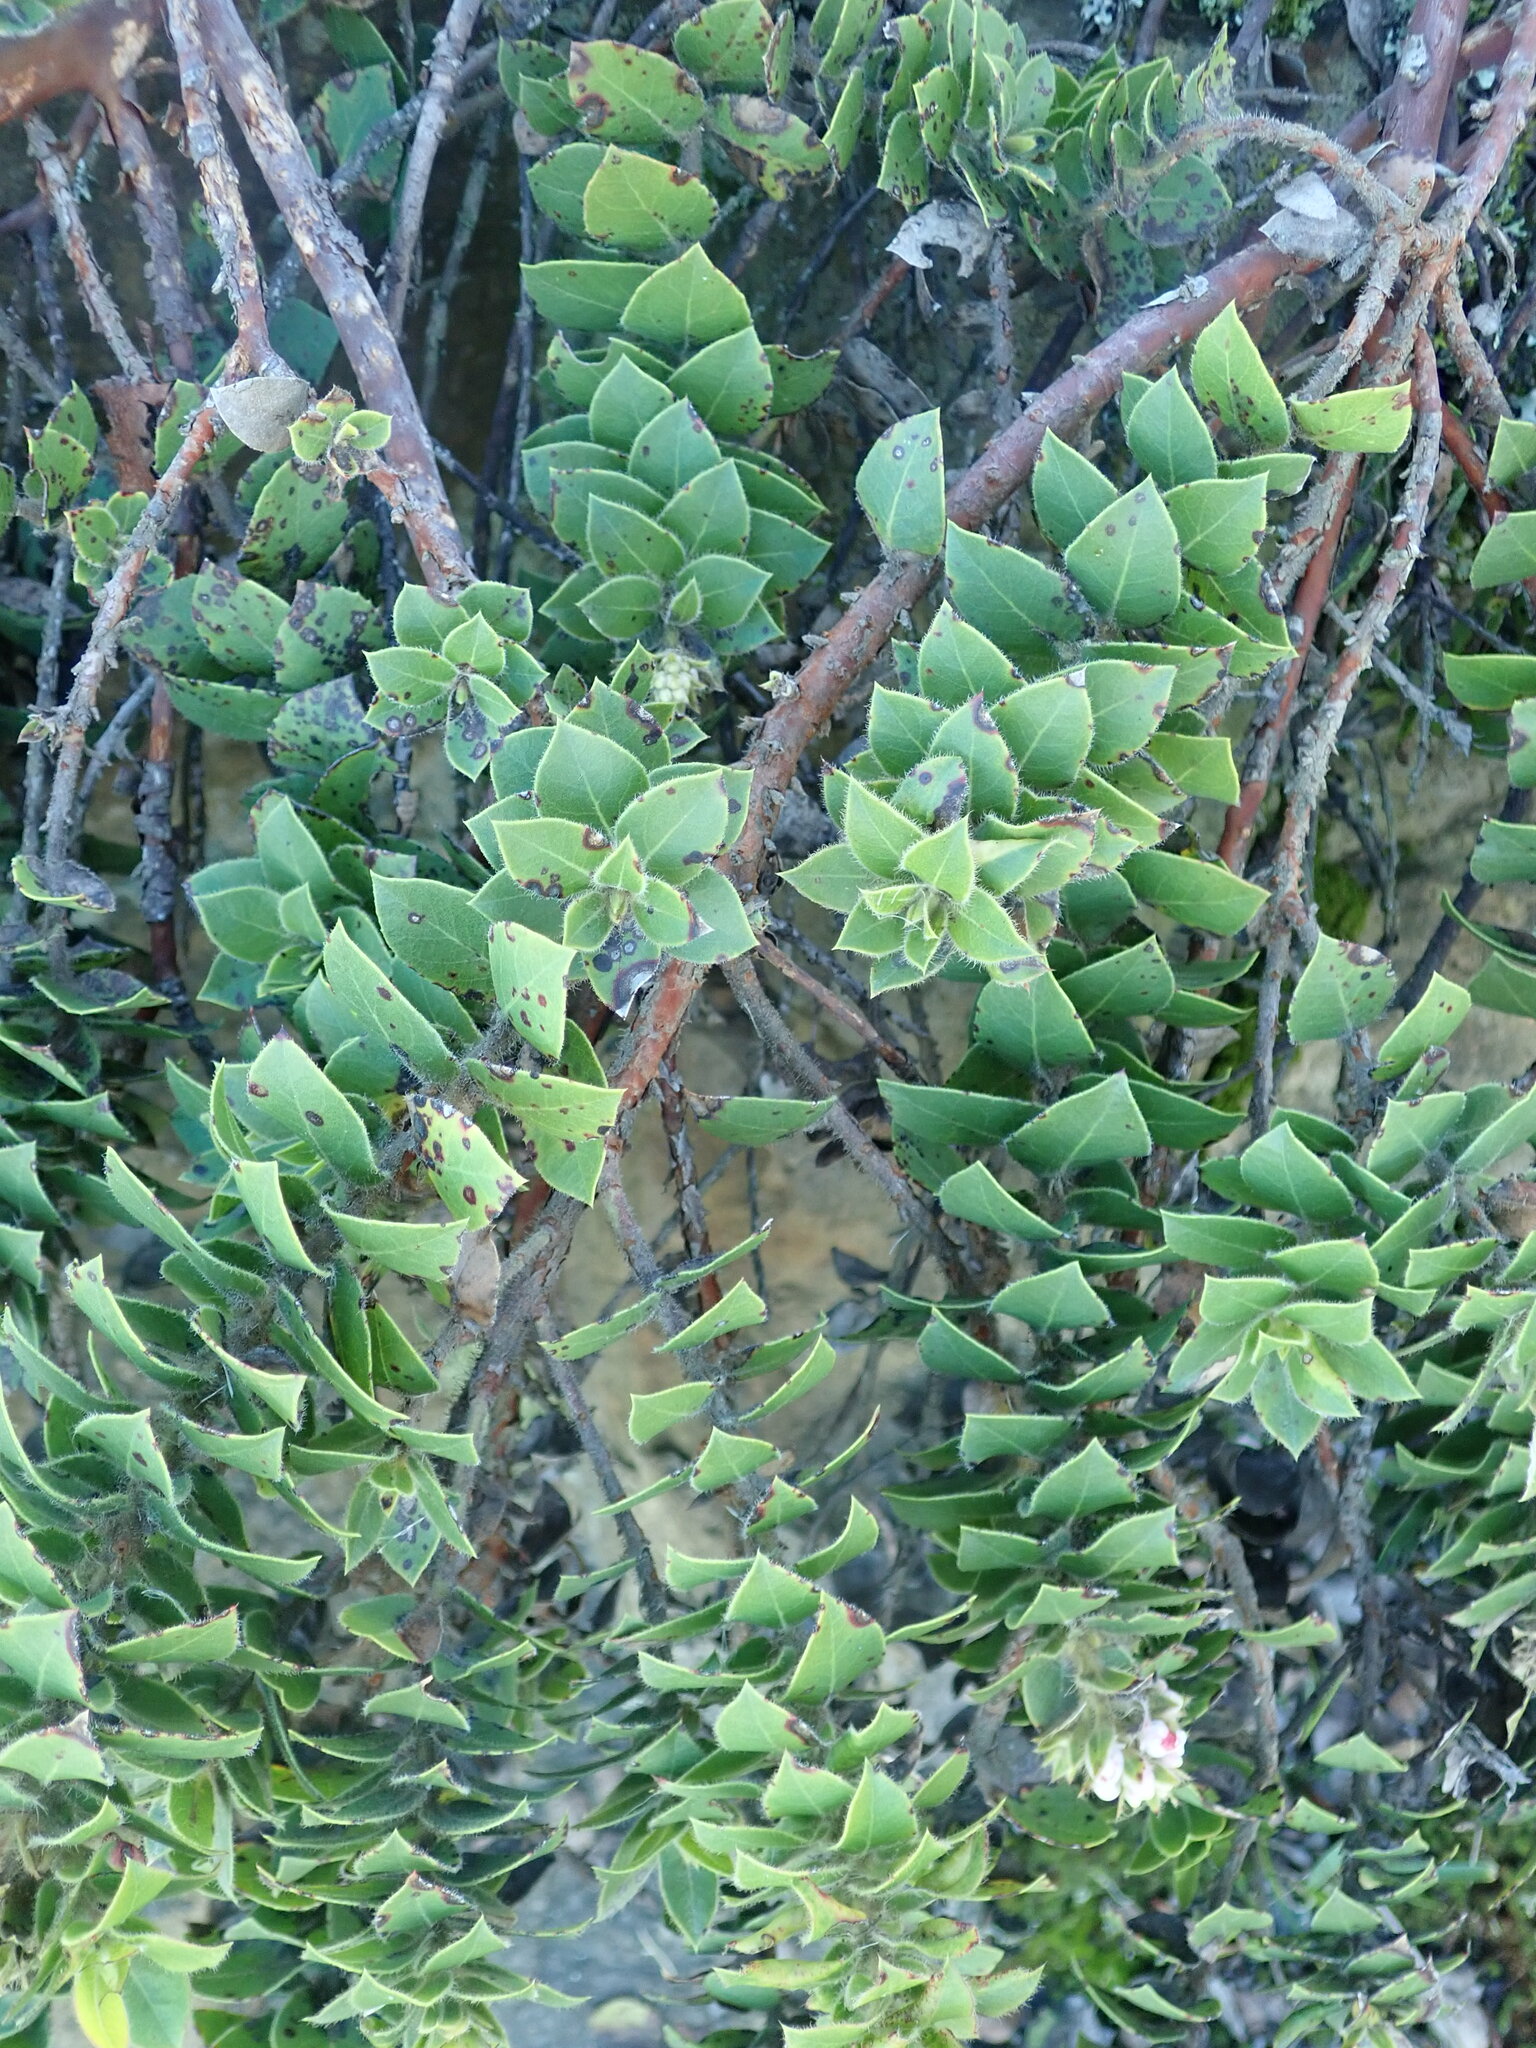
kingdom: Plantae
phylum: Tracheophyta
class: Magnoliopsida
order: Ericales
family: Ericaceae
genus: Arctostaphylos
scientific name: Arctostaphylos imbricata
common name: San bruno mountain manzanita
